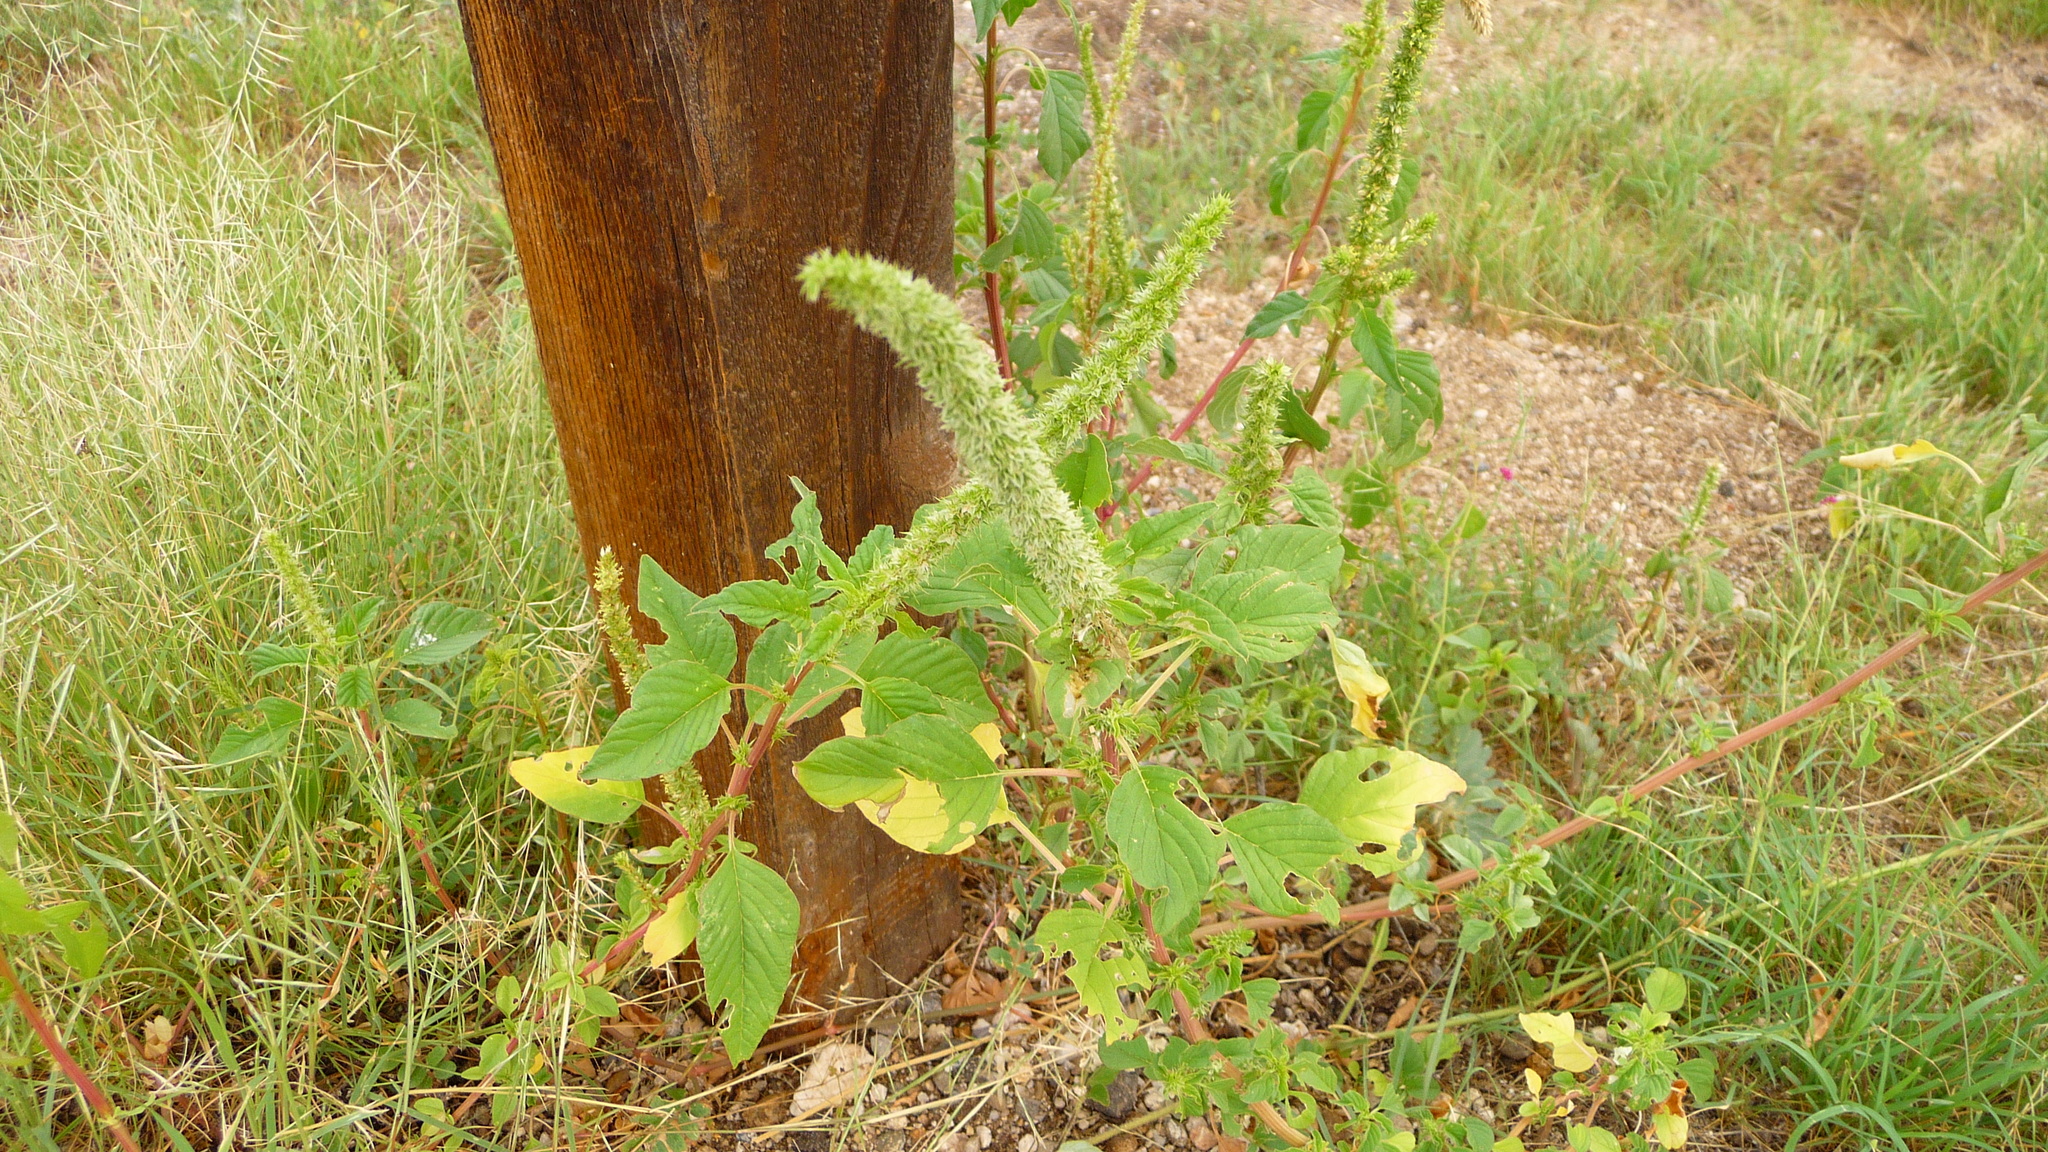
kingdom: Plantae
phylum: Tracheophyta
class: Magnoliopsida
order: Caryophyllales
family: Amaranthaceae
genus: Amaranthus
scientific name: Amaranthus palmeri
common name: Dioecious amaranth
